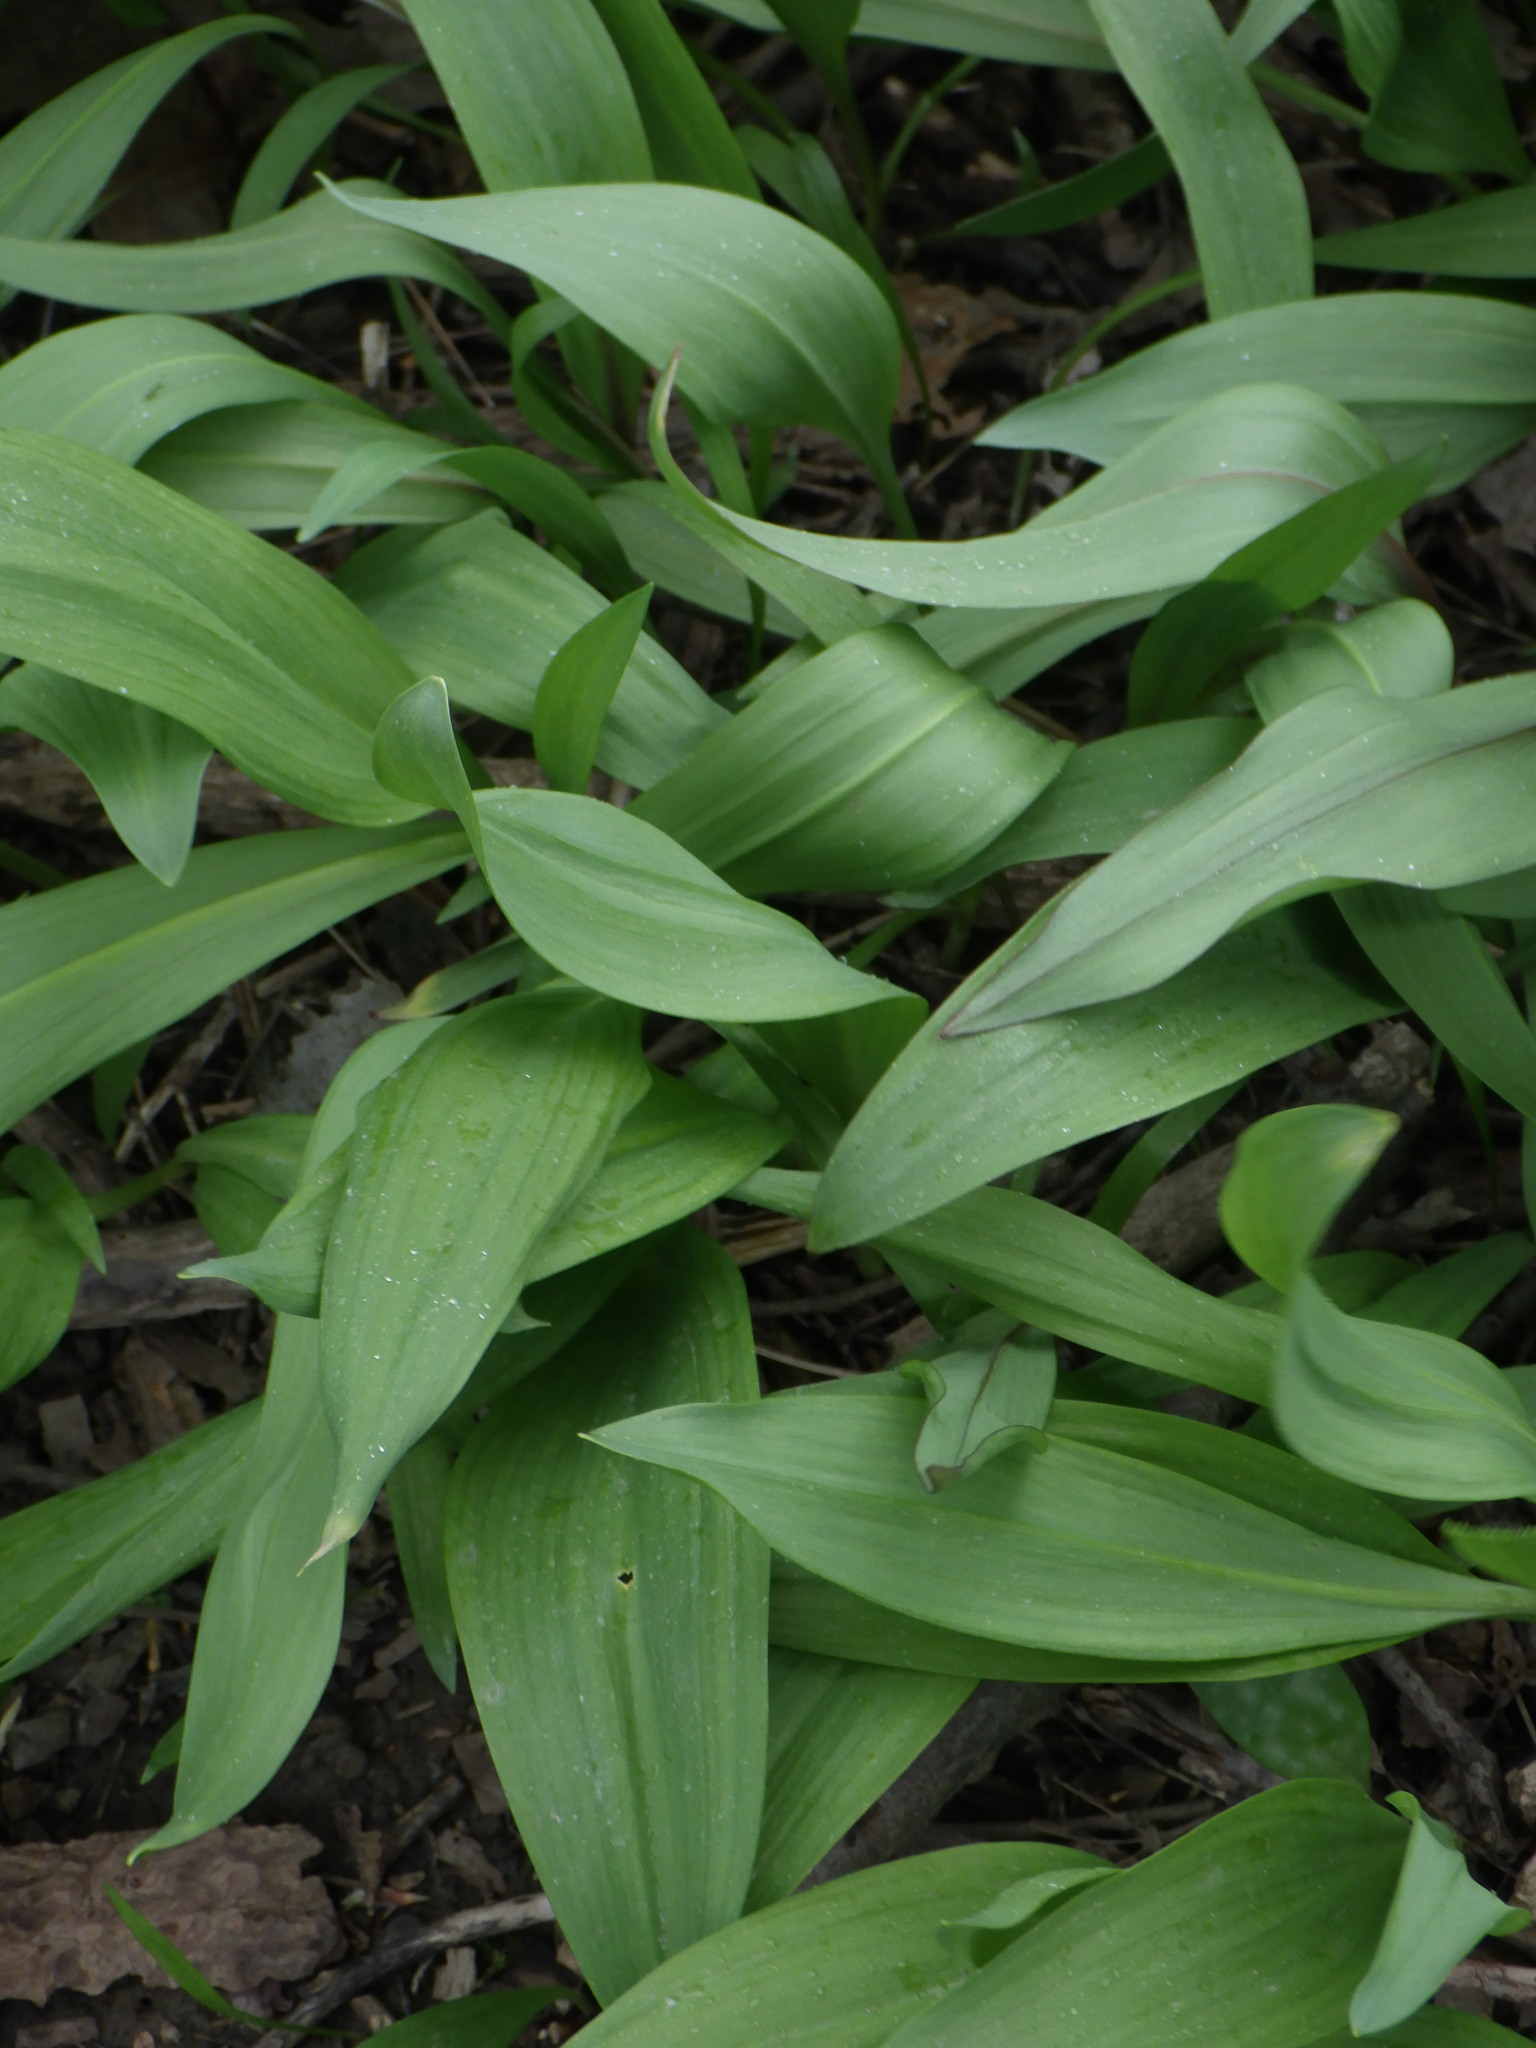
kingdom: Plantae
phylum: Tracheophyta
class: Liliopsida
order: Asparagales
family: Amaryllidaceae
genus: Allium
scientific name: Allium tricoccum
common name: Ramp
